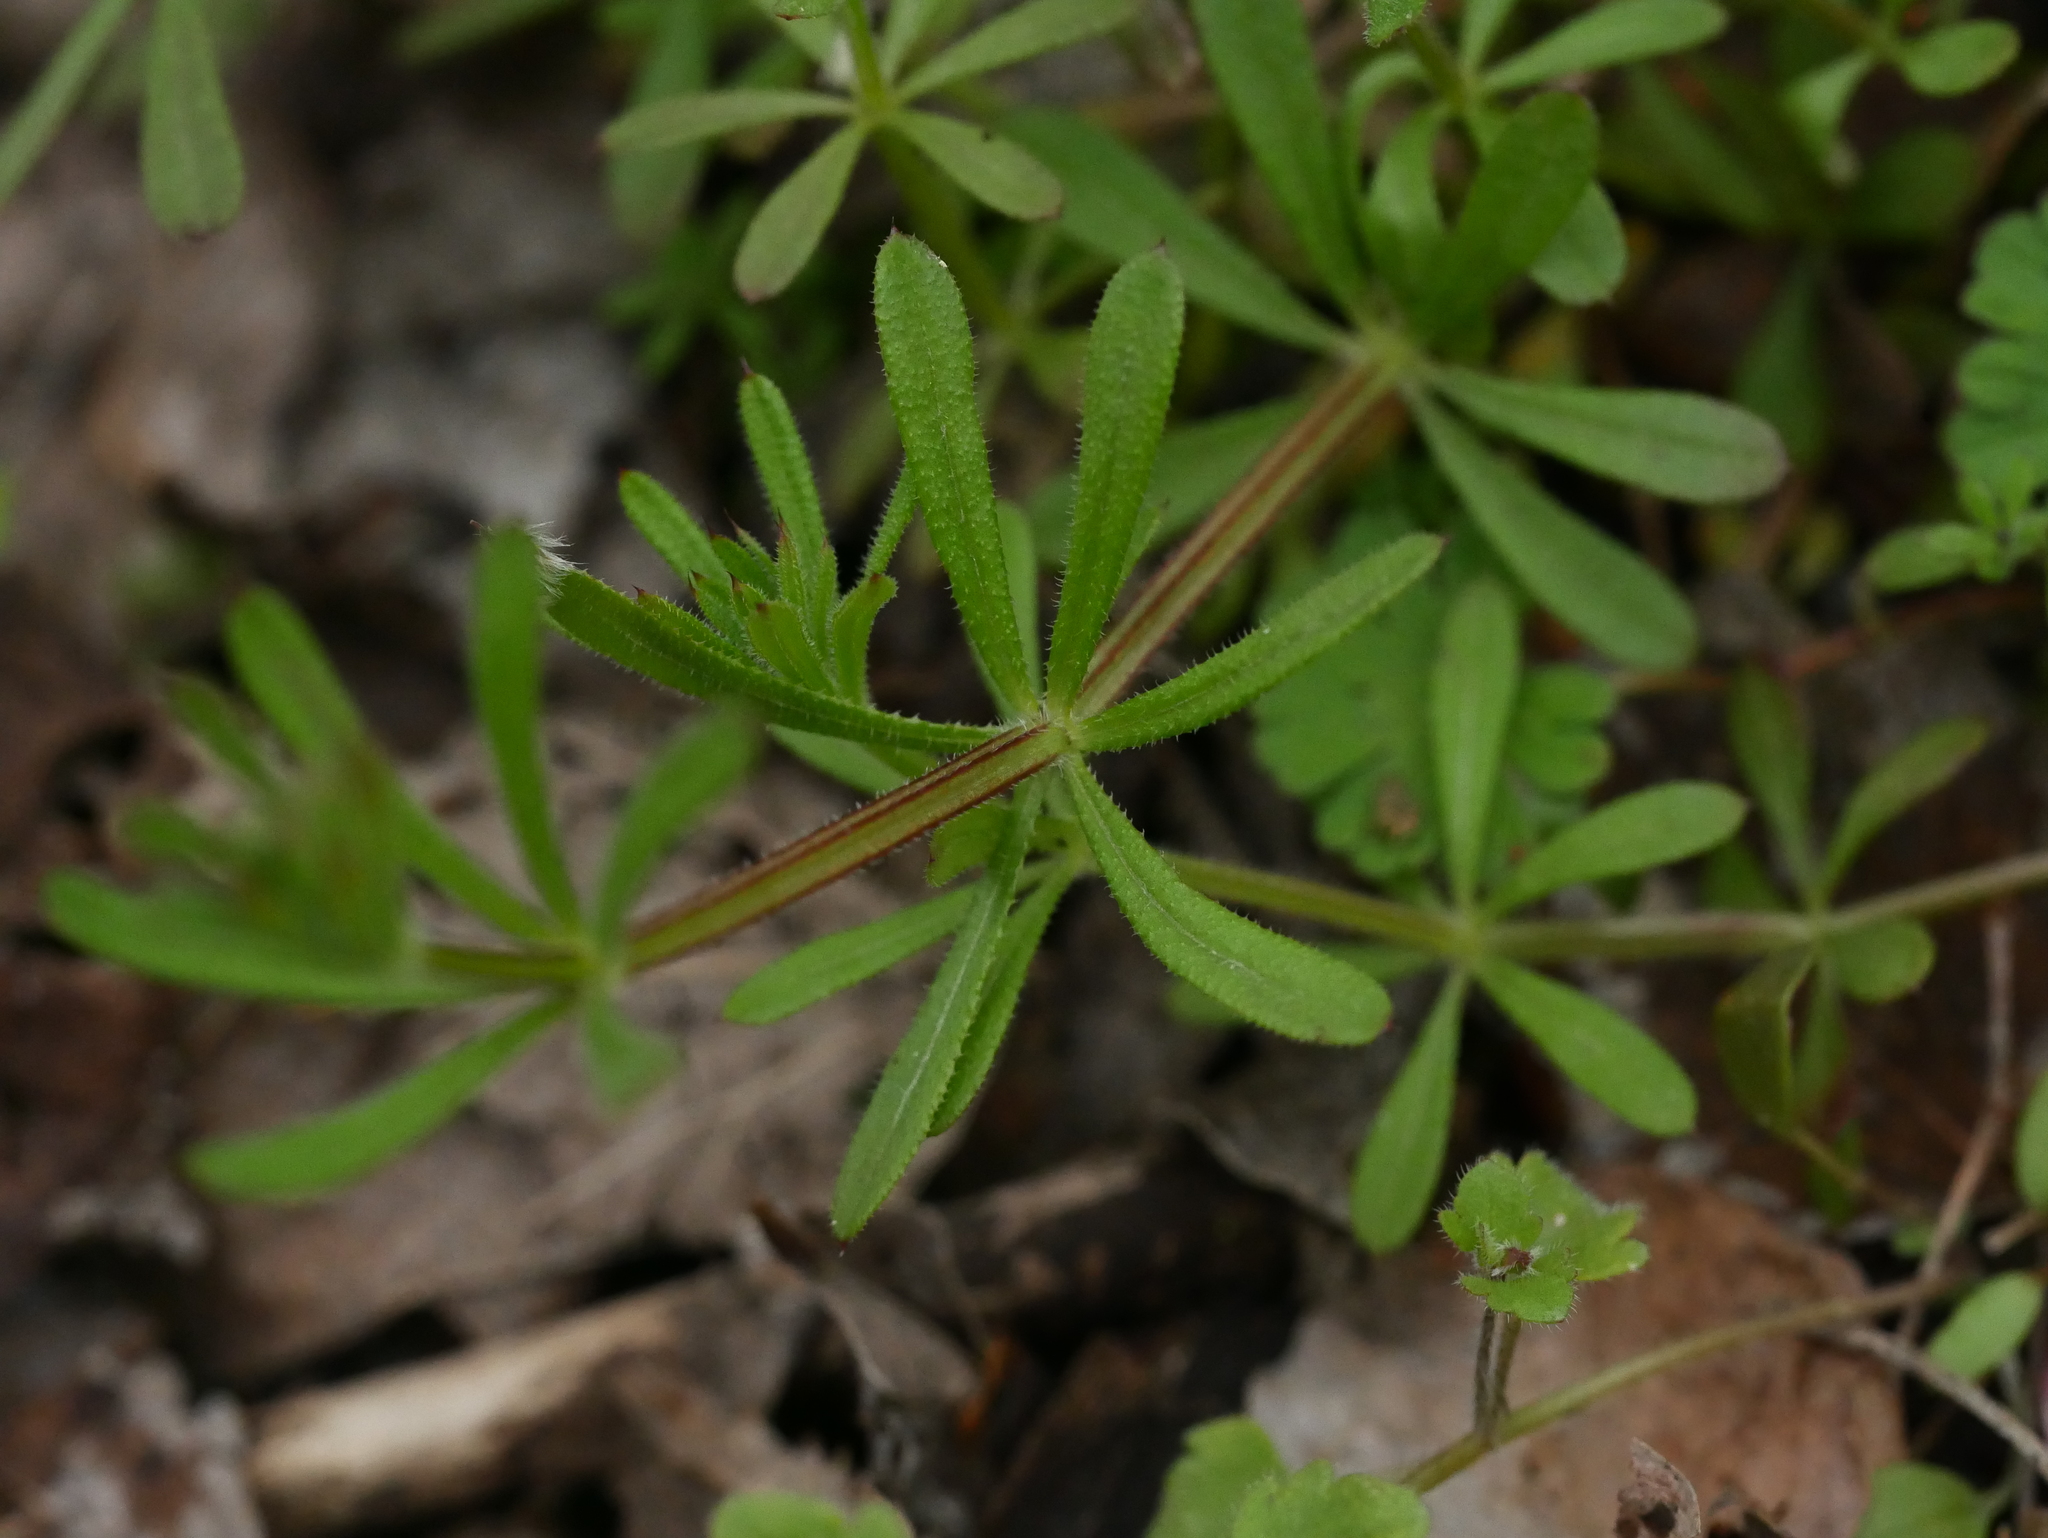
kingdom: Plantae
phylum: Tracheophyta
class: Magnoliopsida
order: Gentianales
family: Rubiaceae
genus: Galium
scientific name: Galium aparine
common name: Cleavers
